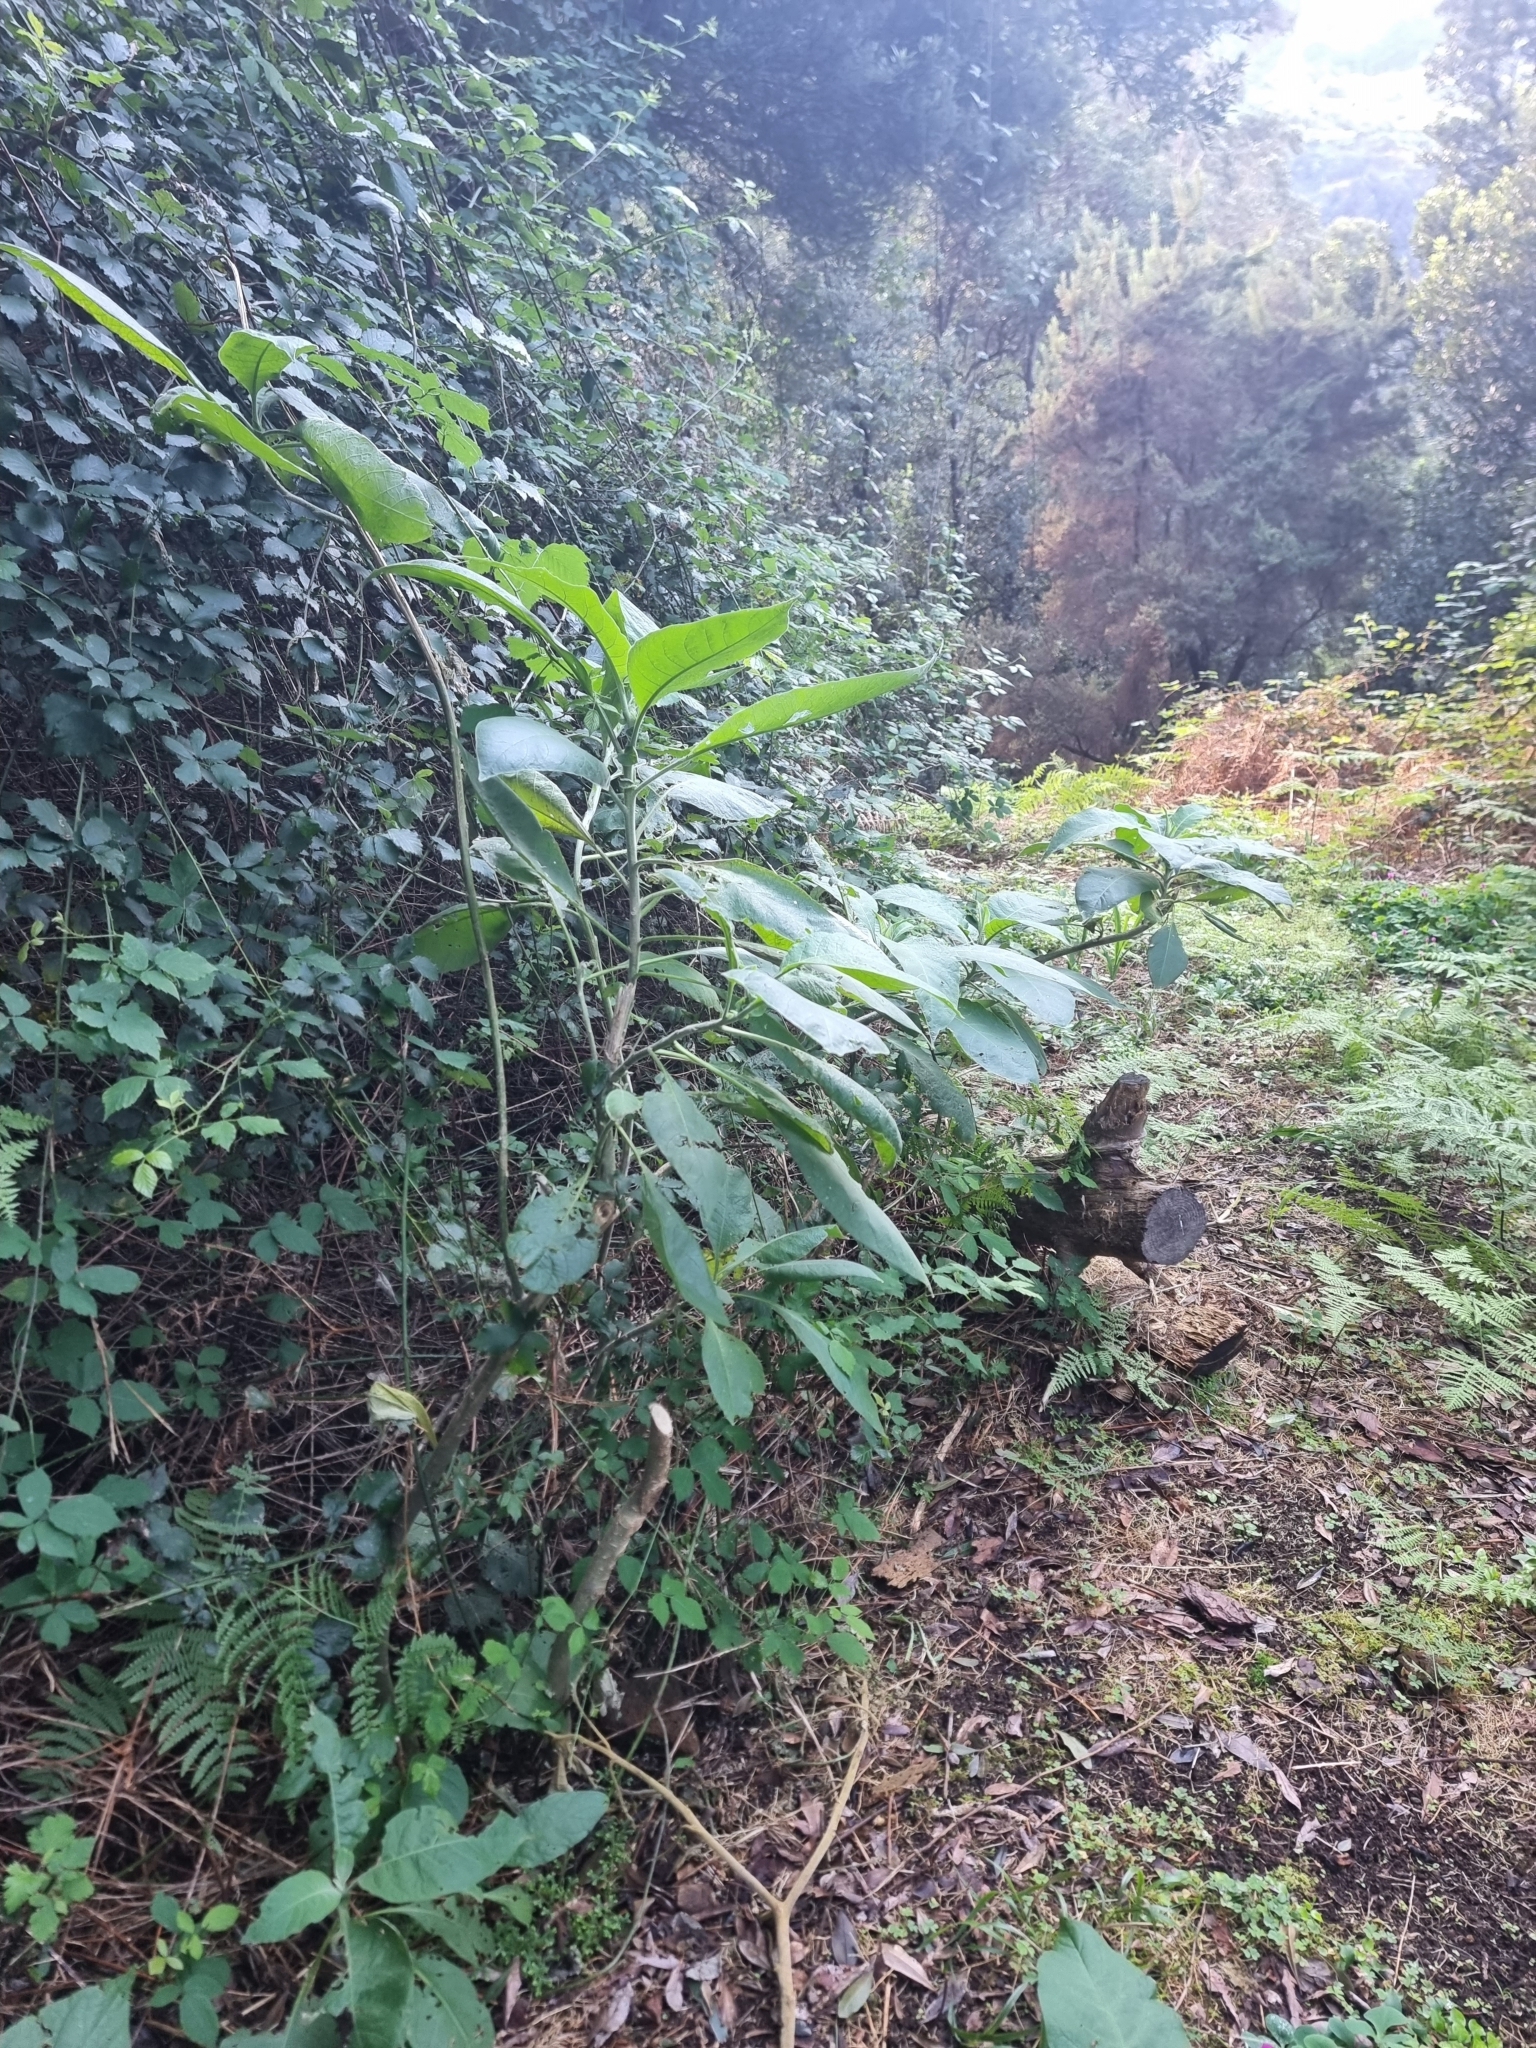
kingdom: Plantae
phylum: Tracheophyta
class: Magnoliopsida
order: Solanales
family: Solanaceae
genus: Solanum
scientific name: Solanum mauritianum
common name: Earleaf nightshade
